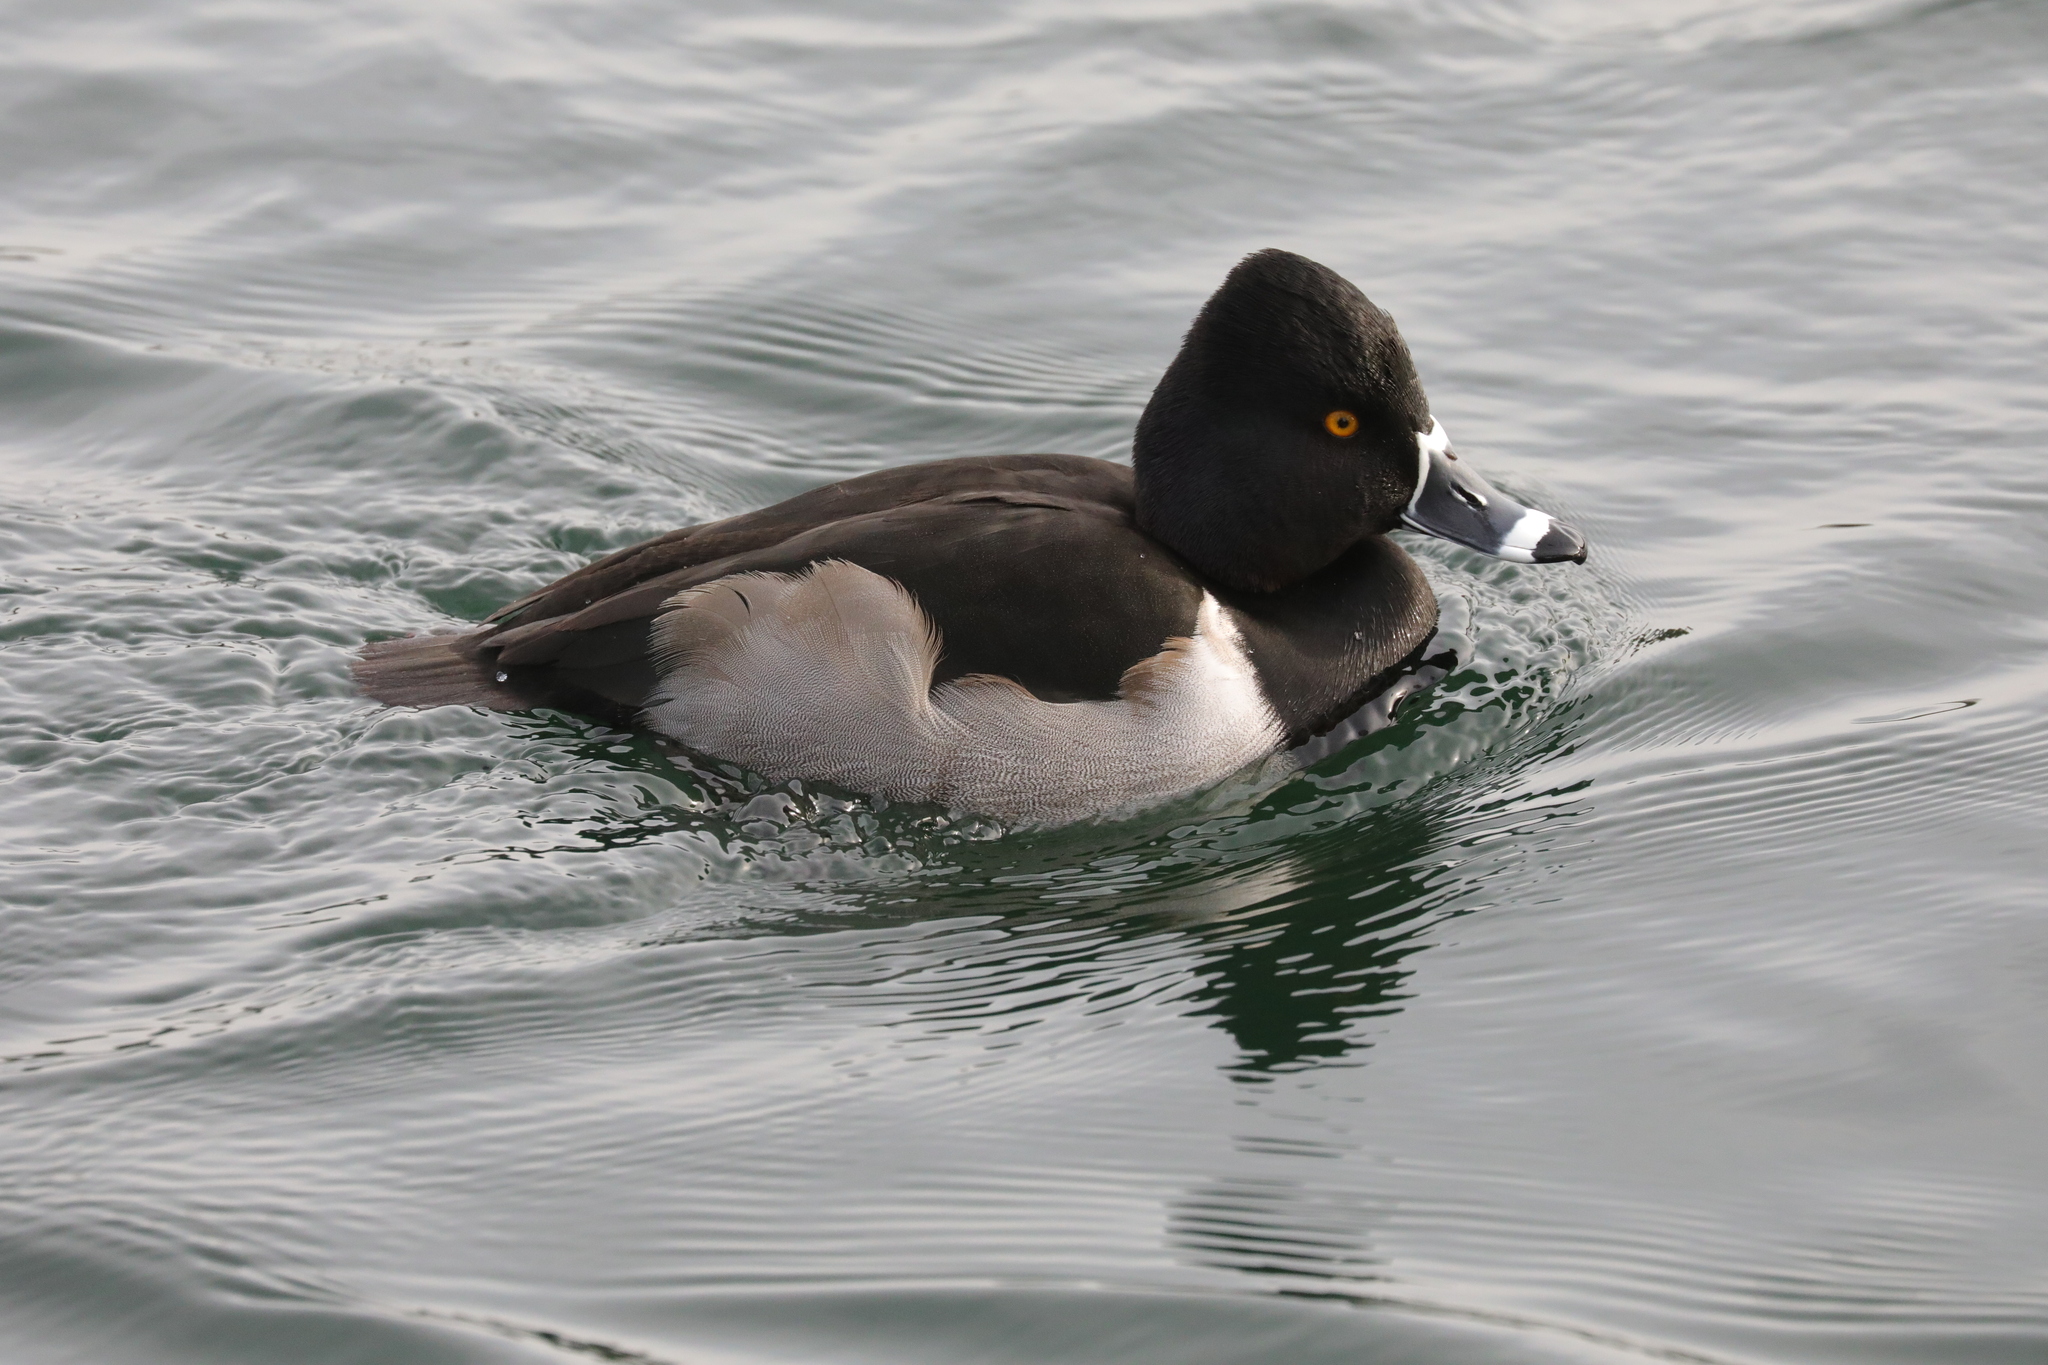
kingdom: Animalia
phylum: Chordata
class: Aves
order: Anseriformes
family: Anatidae
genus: Aythya
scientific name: Aythya collaris
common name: Ring-necked duck
